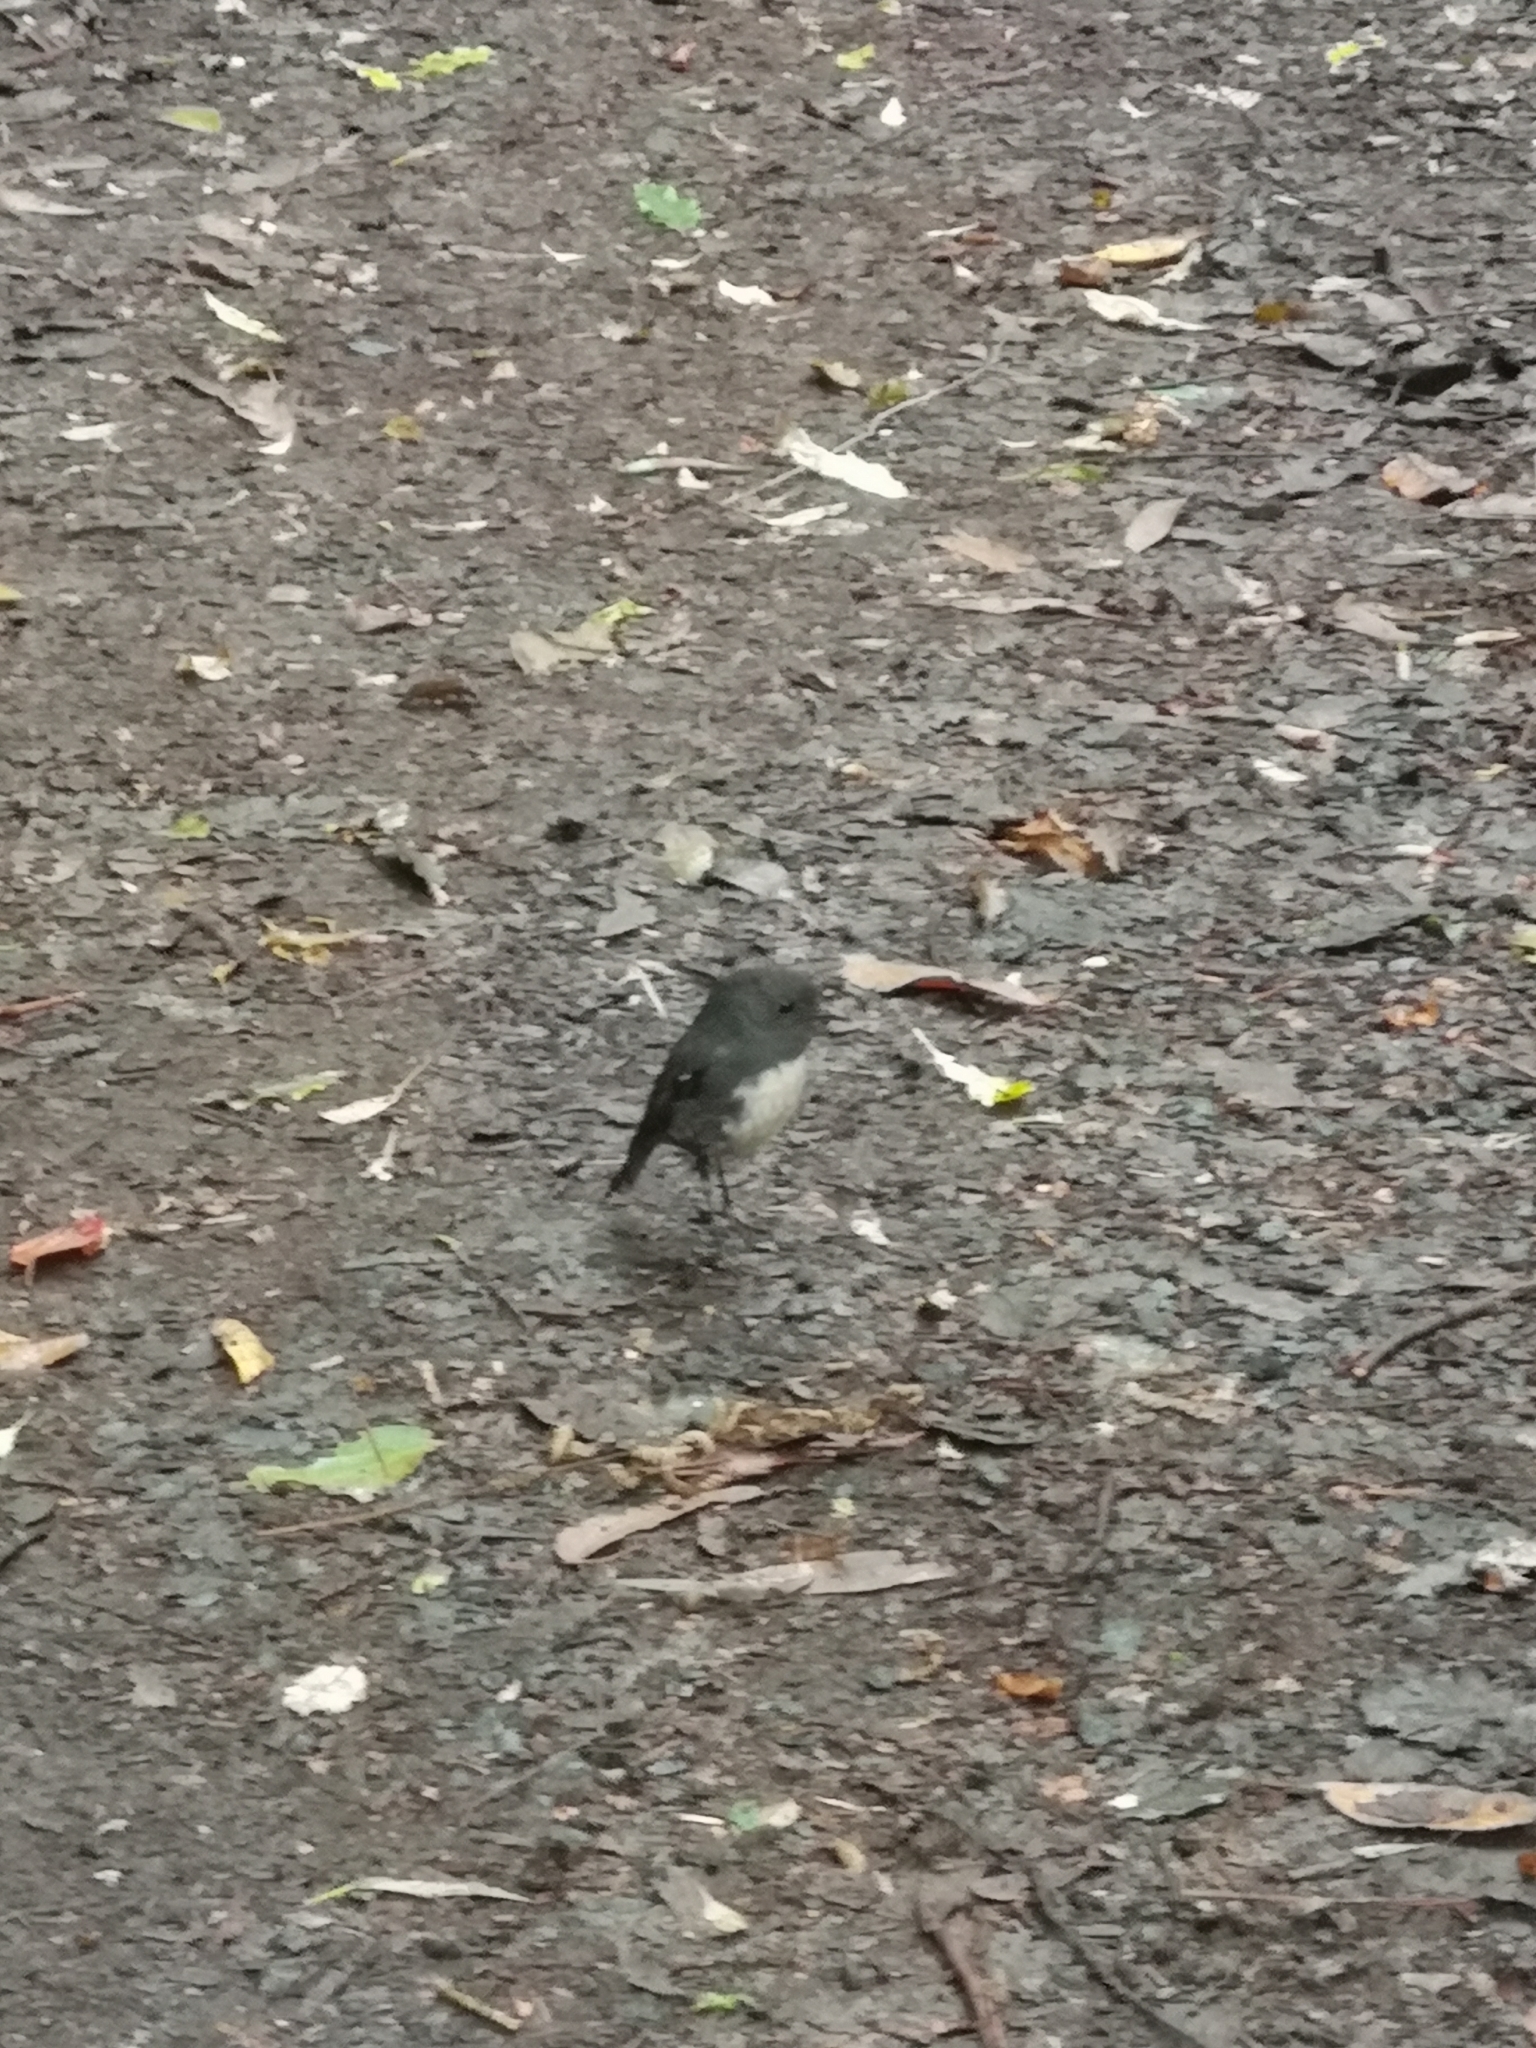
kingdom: Animalia
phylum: Chordata
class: Aves
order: Passeriformes
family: Petroicidae
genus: Petroica
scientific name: Petroica australis
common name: New zealand robin
